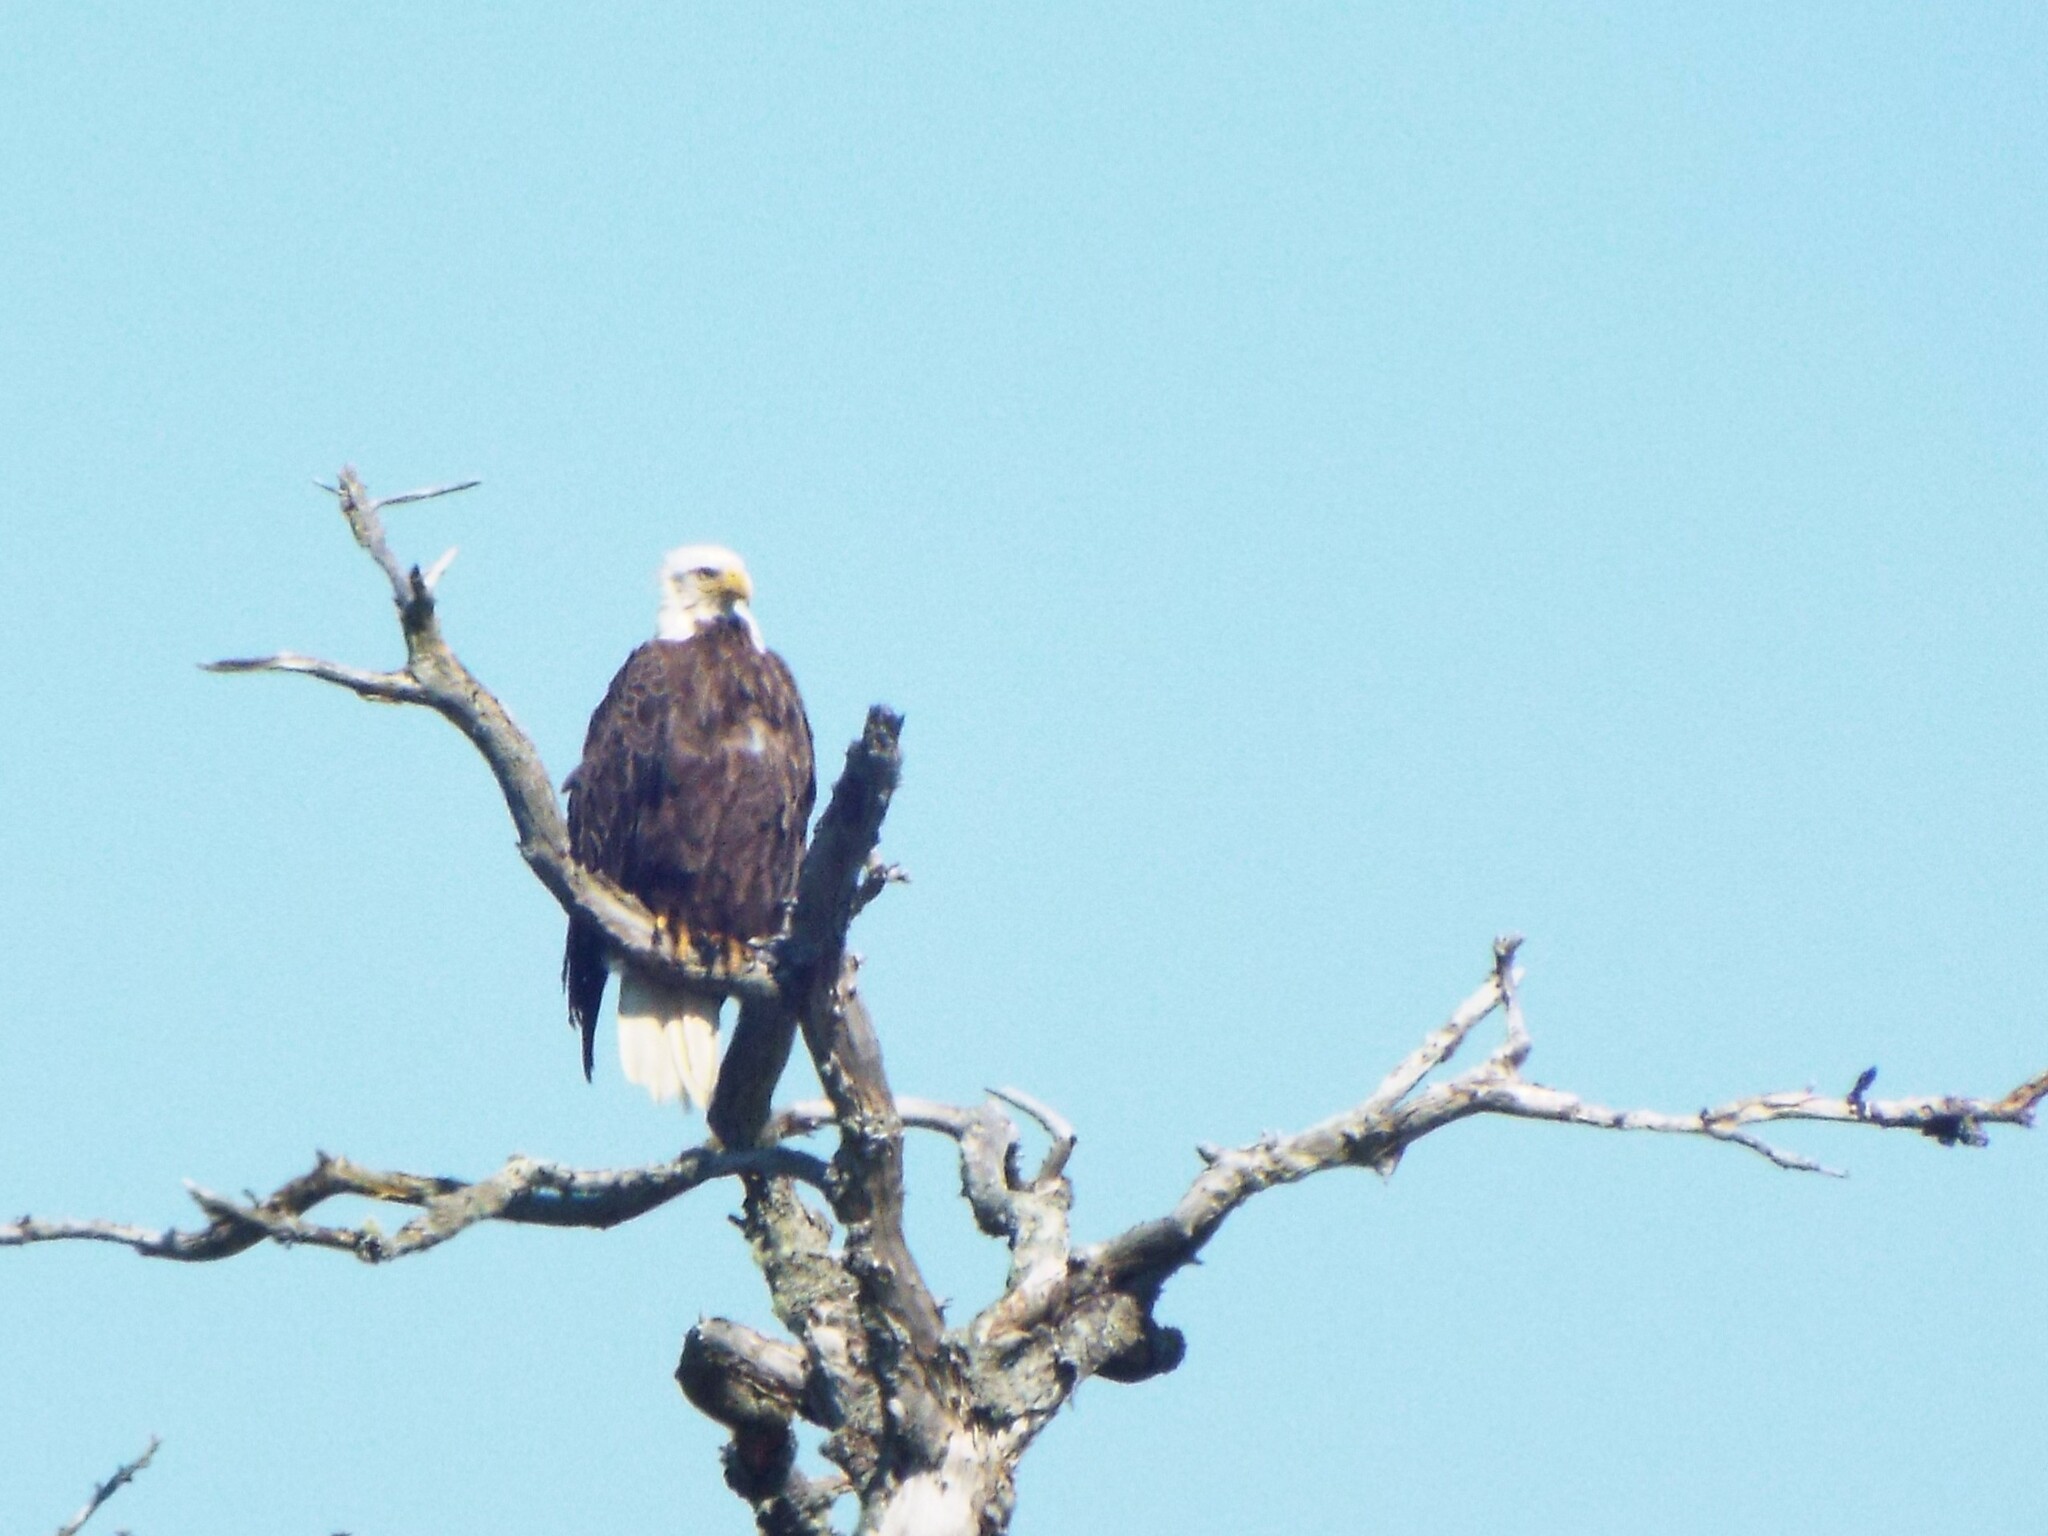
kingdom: Animalia
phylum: Chordata
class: Aves
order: Accipitriformes
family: Accipitridae
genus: Haliaeetus
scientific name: Haliaeetus leucocephalus
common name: Bald eagle
